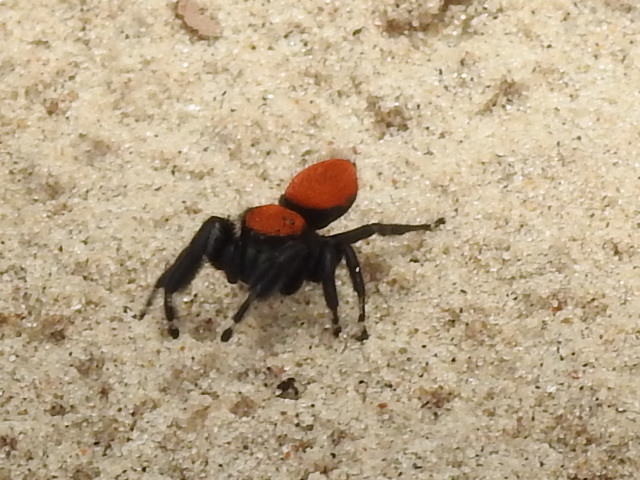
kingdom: Animalia
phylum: Arthropoda
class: Arachnida
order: Araneae
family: Salticidae
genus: Phidippus
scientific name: Phidippus cardinalis
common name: Cardinal jumper
